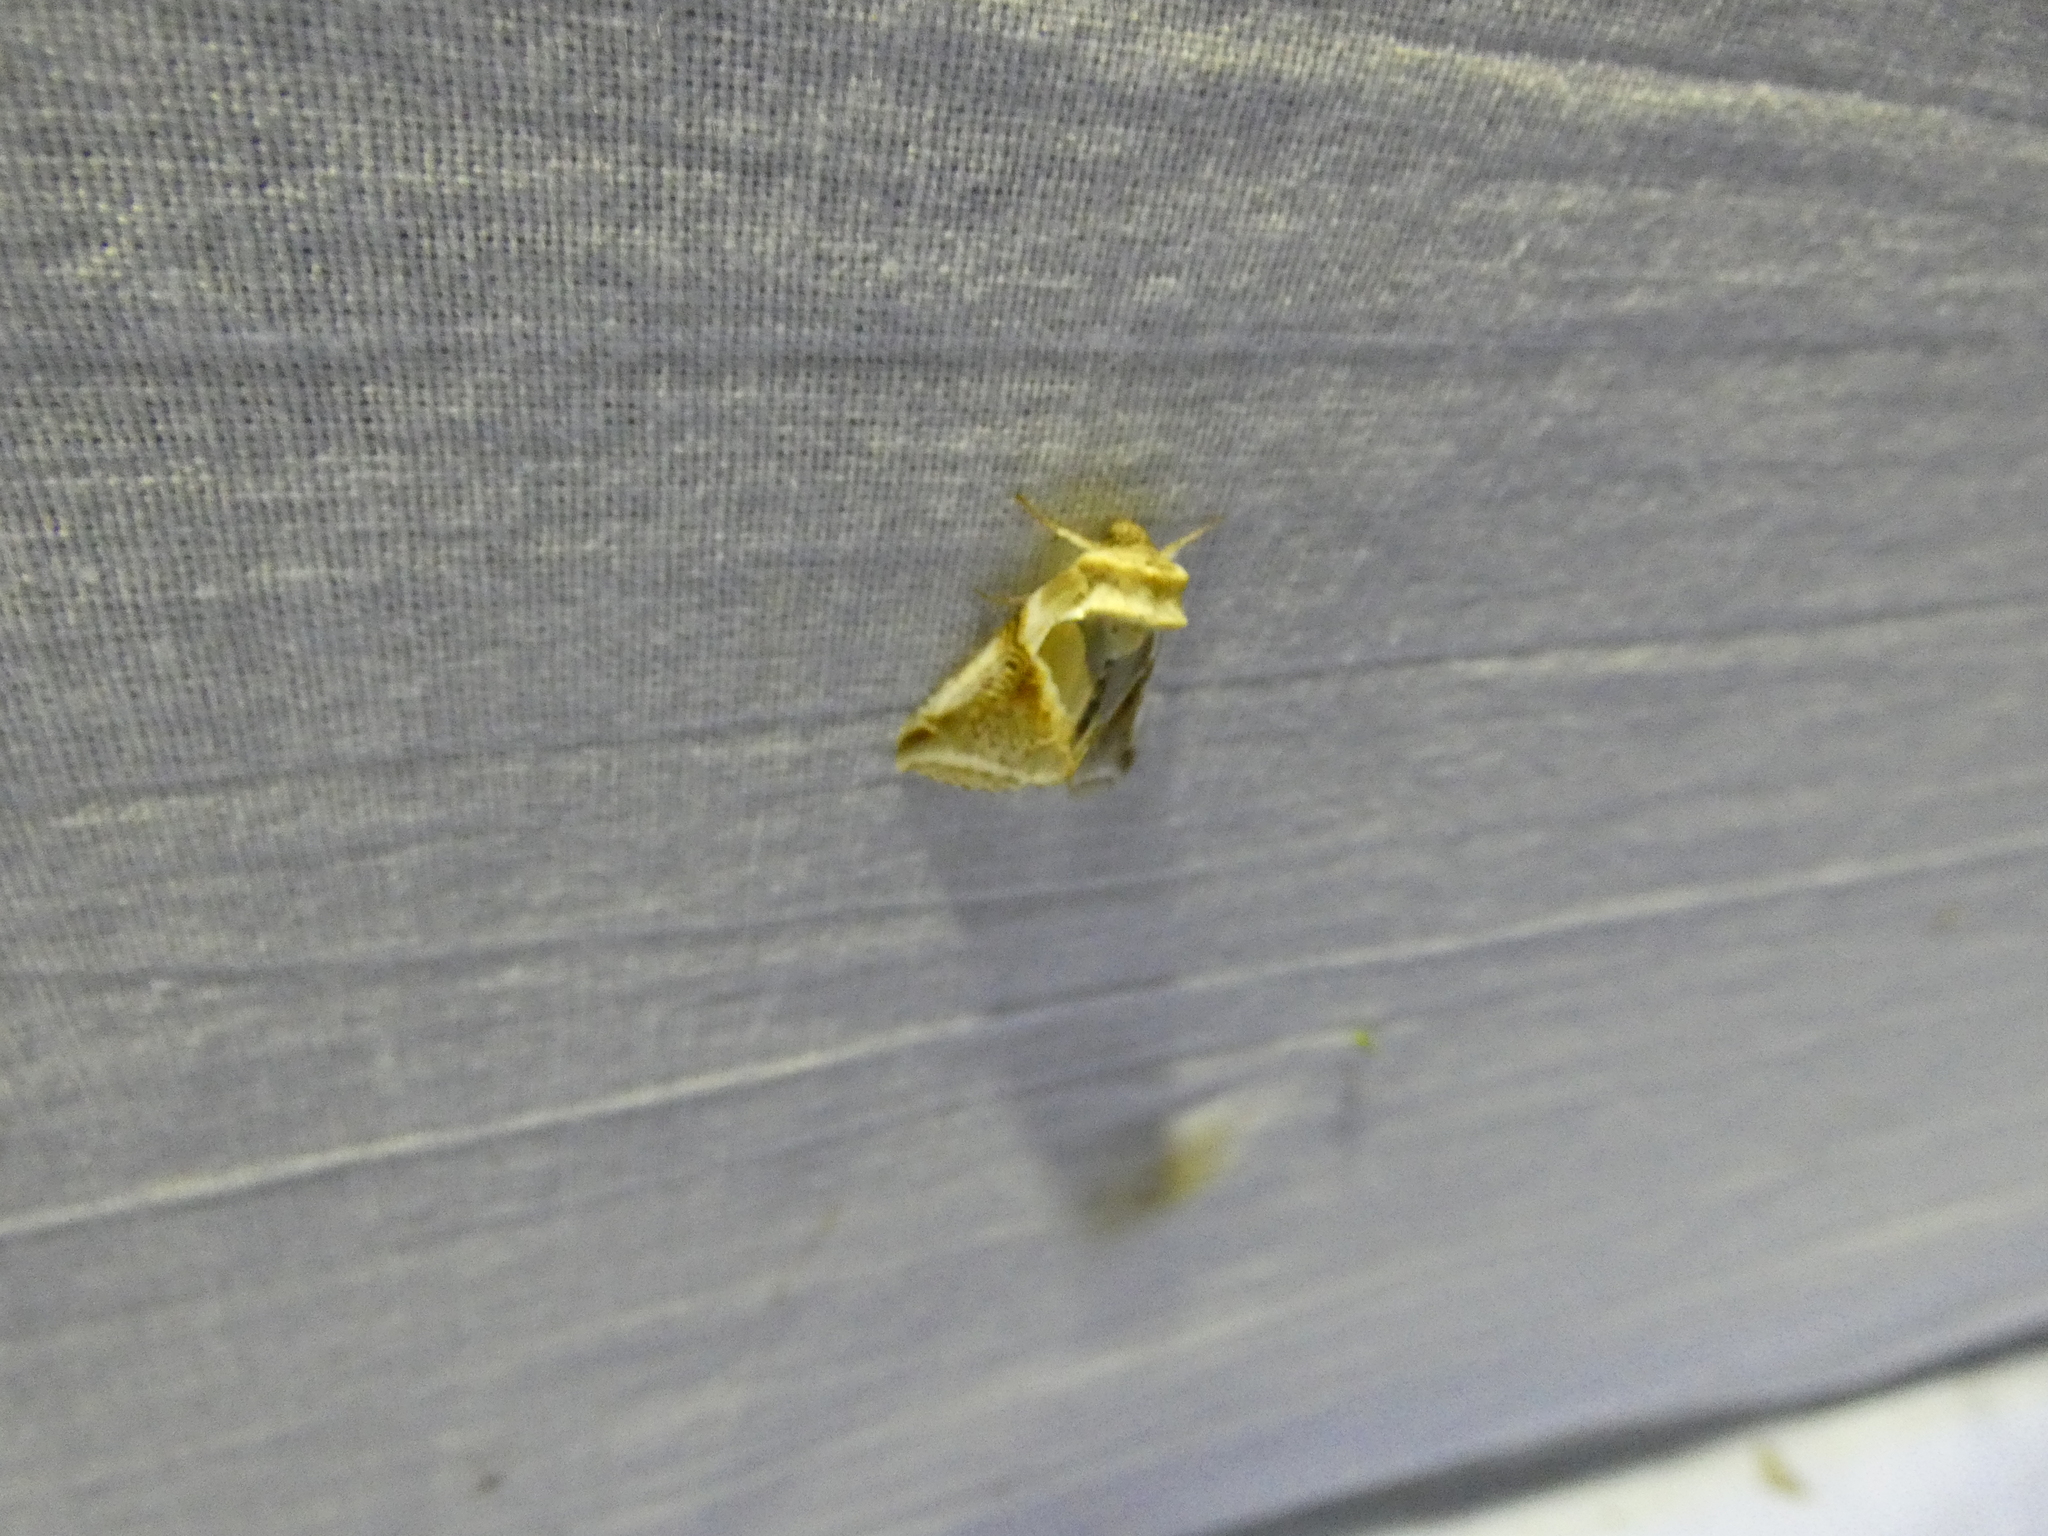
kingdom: Animalia
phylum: Arthropoda
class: Insecta
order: Lepidoptera
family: Drepanidae
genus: Habrosyne
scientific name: Habrosyne pyritoides
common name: Buff arches
